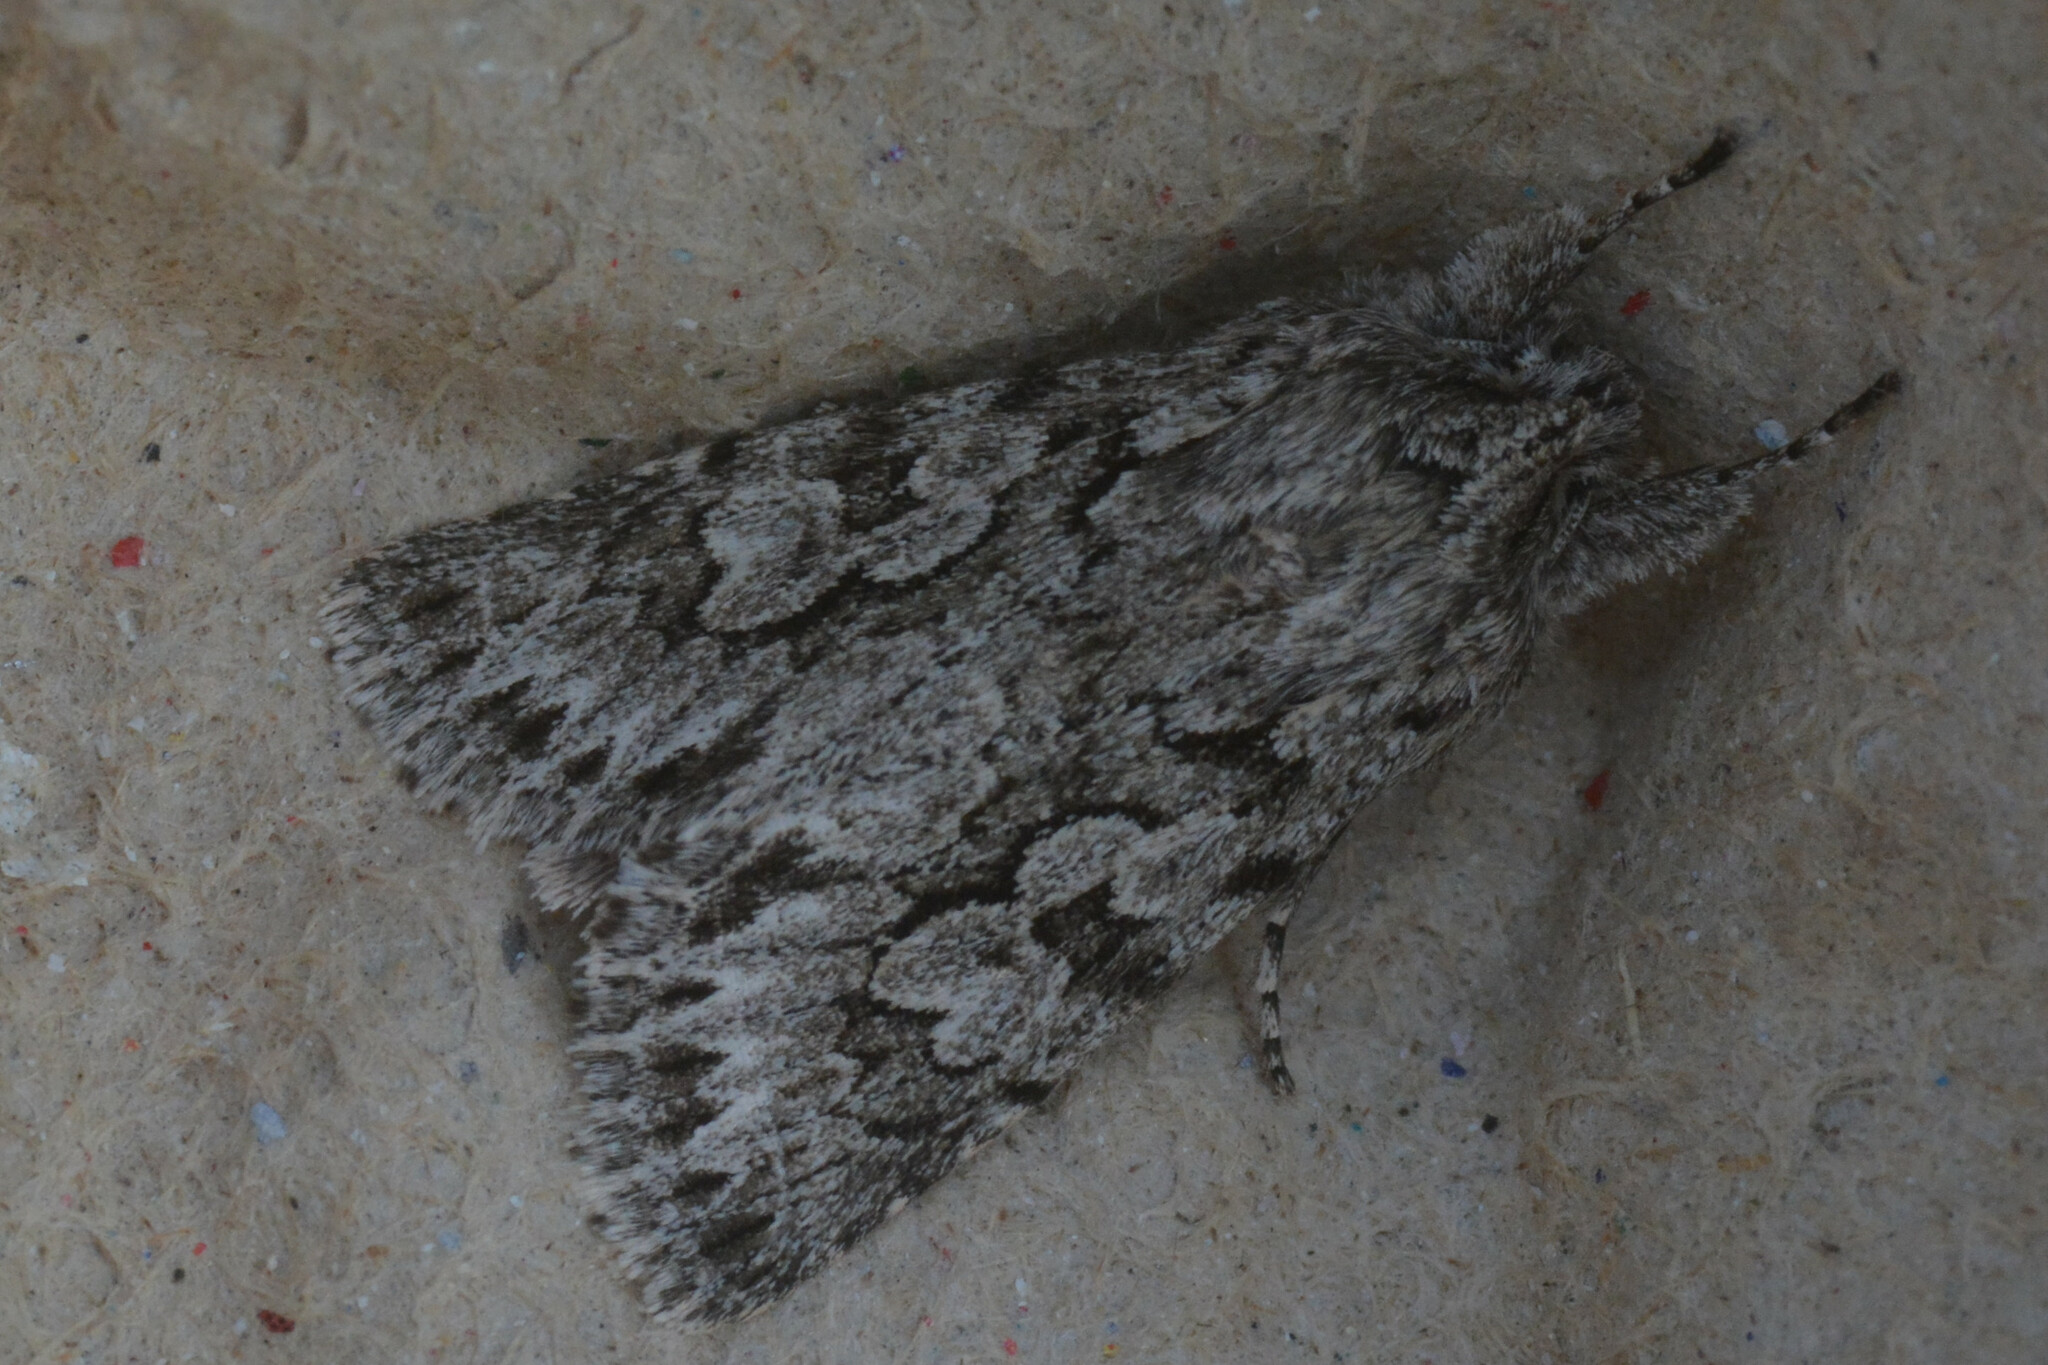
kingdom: Animalia
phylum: Arthropoda
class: Insecta
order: Lepidoptera
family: Noctuidae
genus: Xylocampa
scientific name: Xylocampa areola
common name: Early grey
